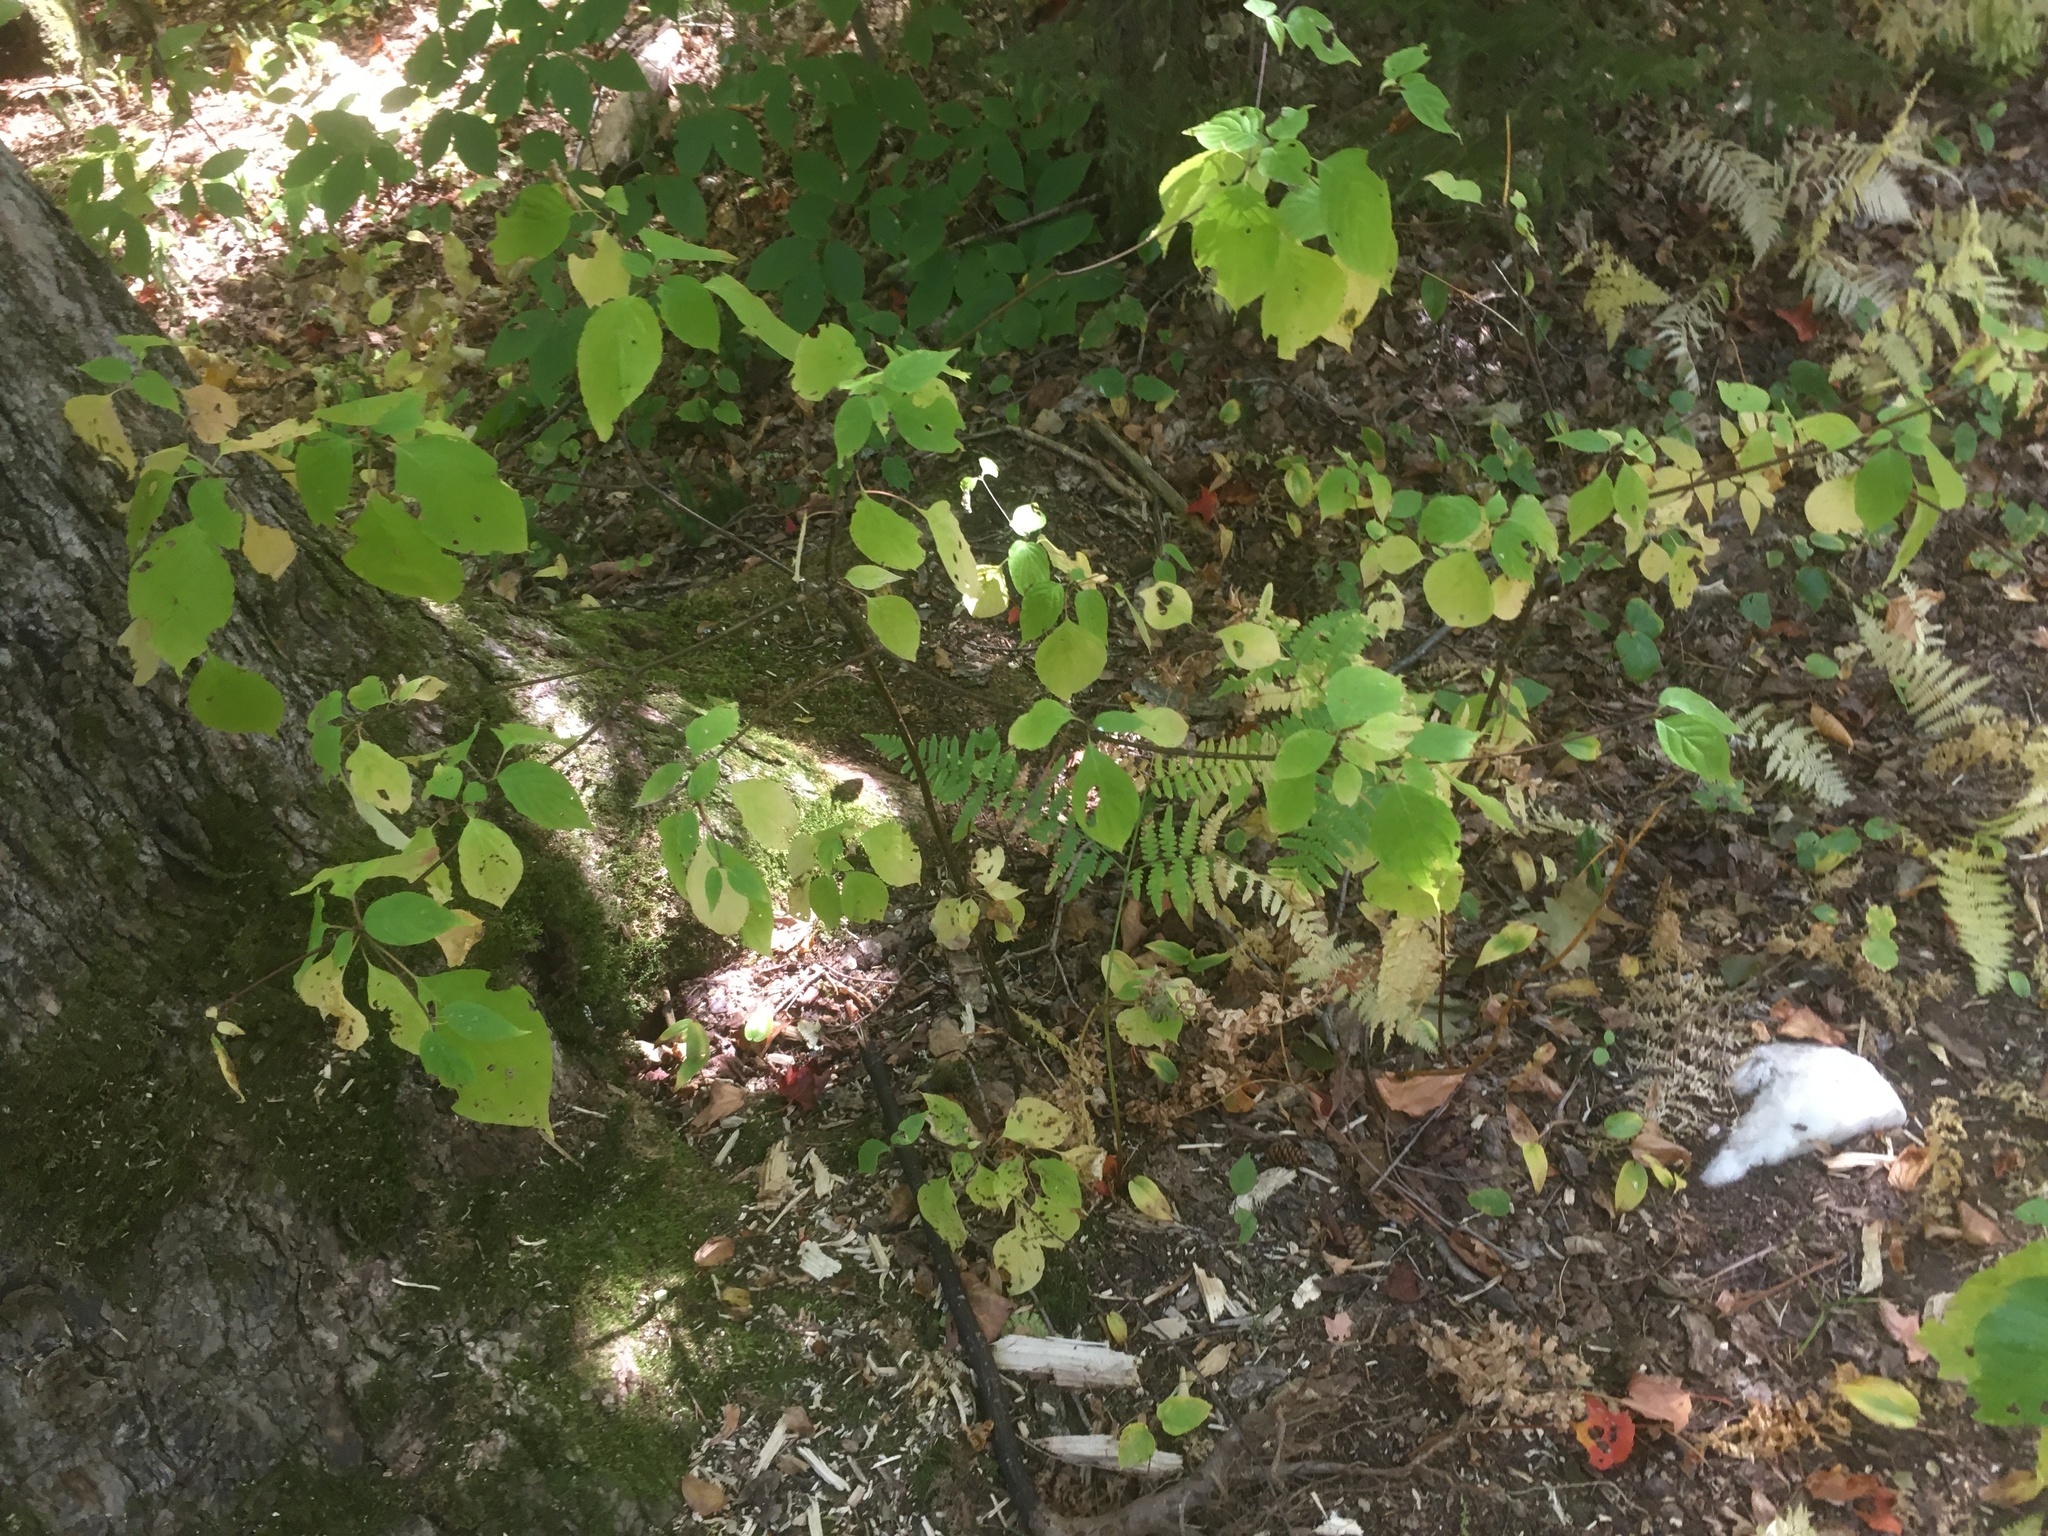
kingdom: Plantae
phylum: Tracheophyta
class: Magnoliopsida
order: Cornales
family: Cornaceae
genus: Cornus
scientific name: Cornus alternifolia
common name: Pagoda dogwood
